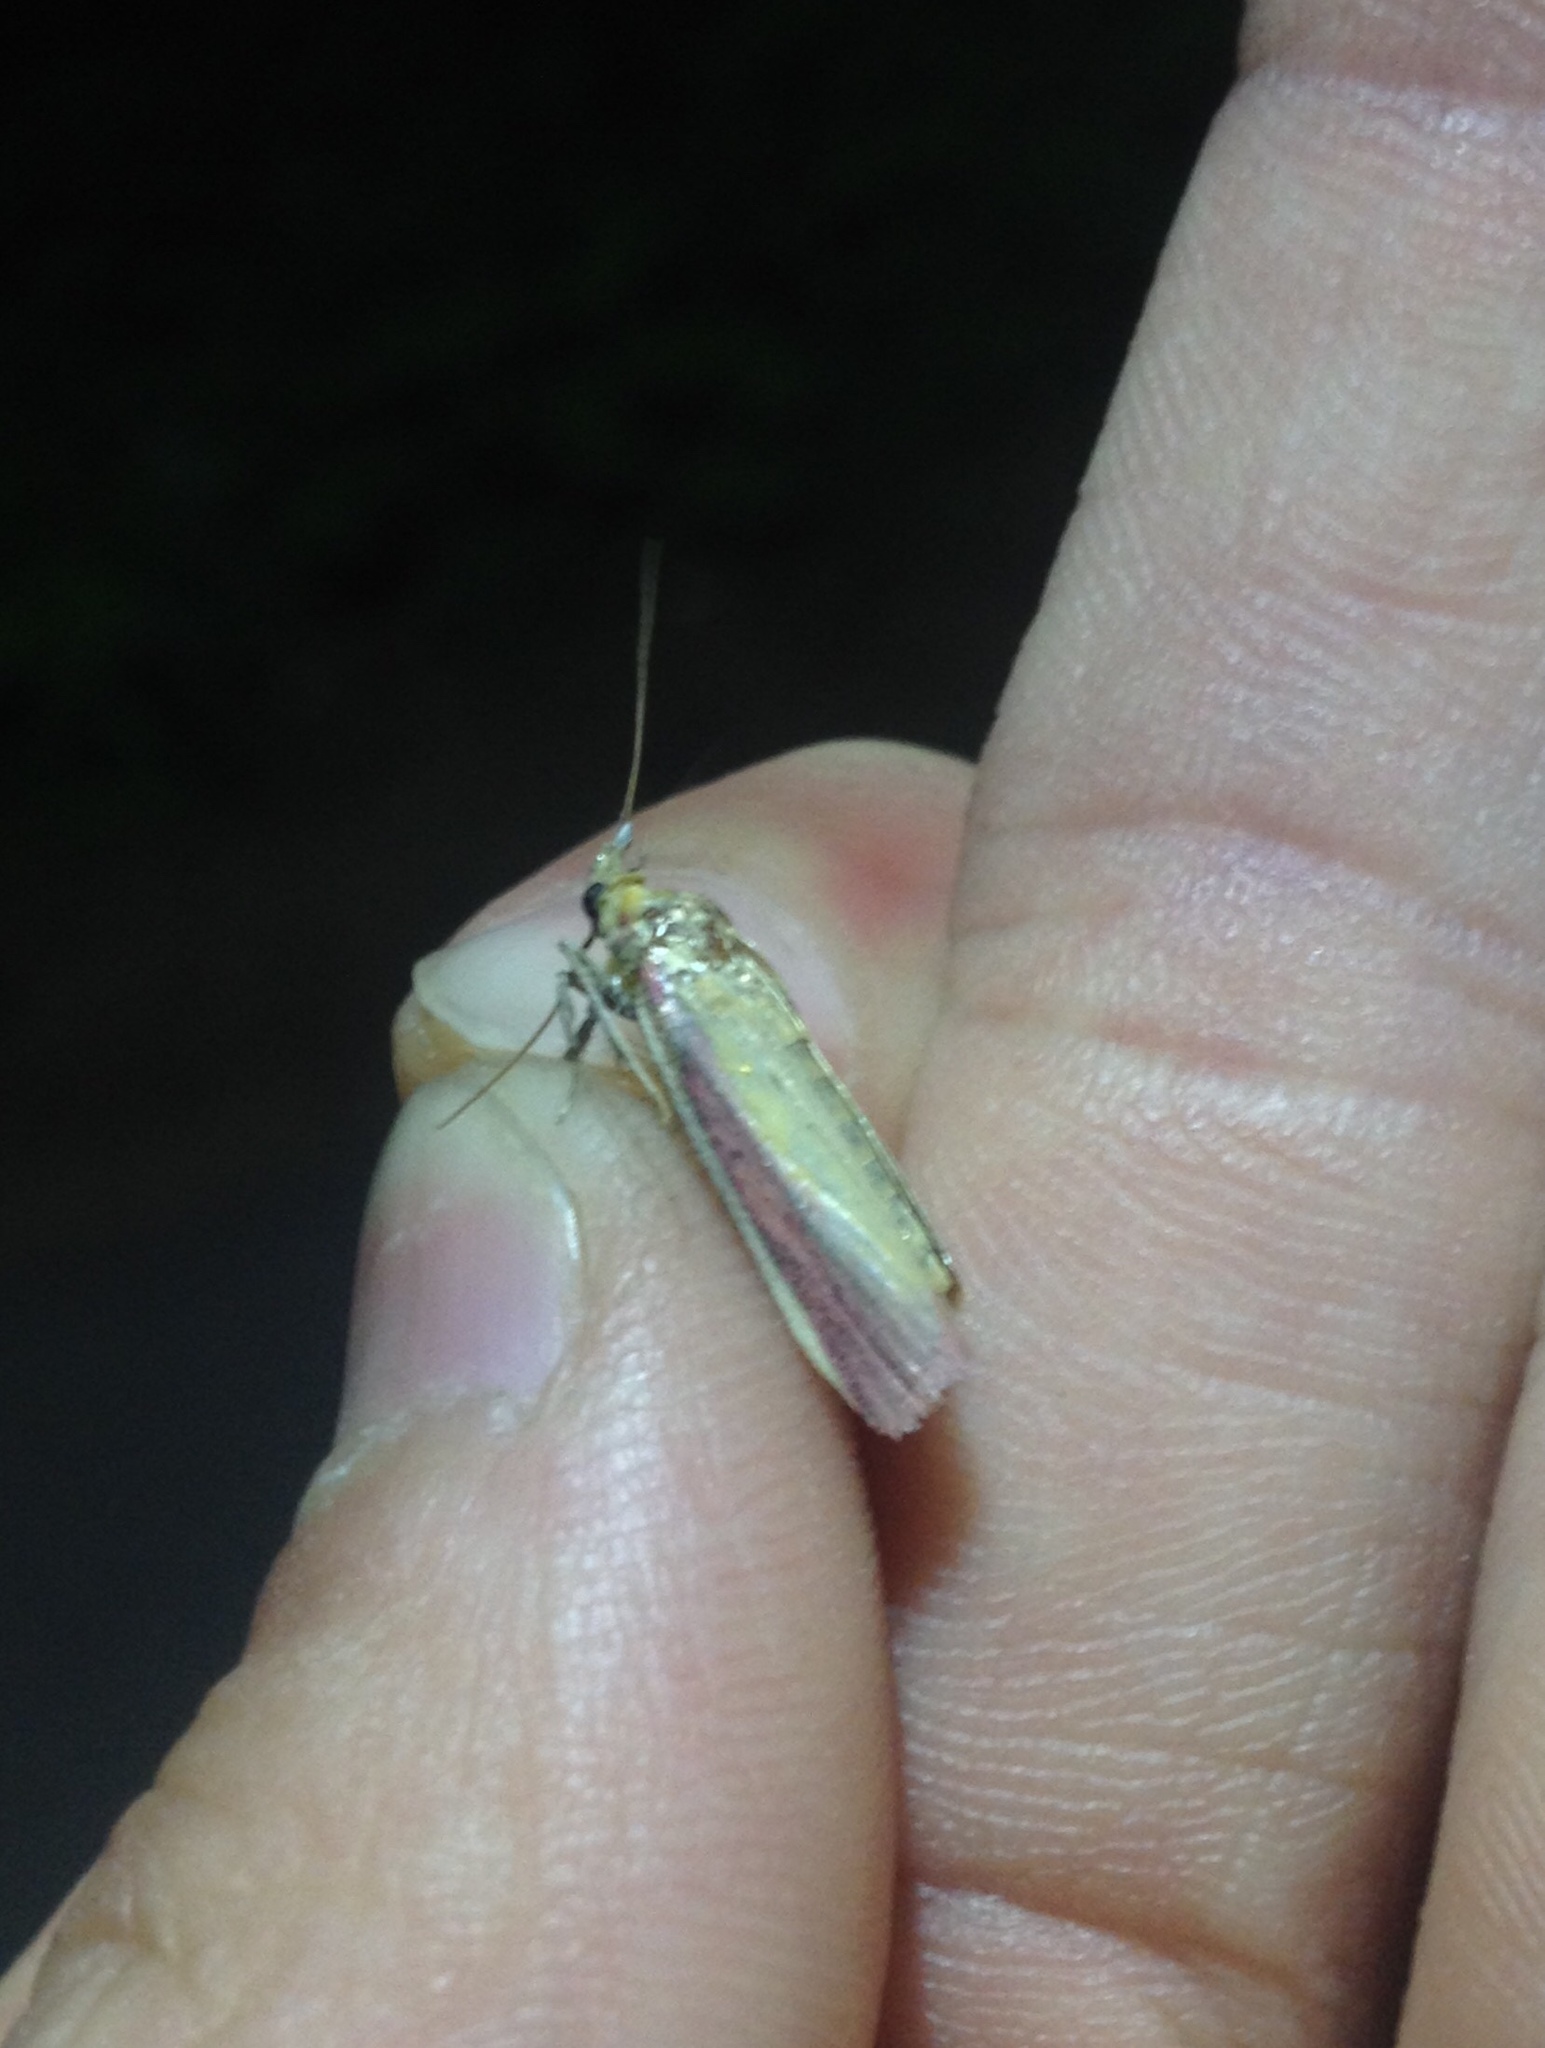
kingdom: Animalia
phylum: Arthropoda
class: Insecta
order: Lepidoptera
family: Pyralidae
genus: Oncocera
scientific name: Oncocera semirubella
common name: Rosy-striped knot-horn
